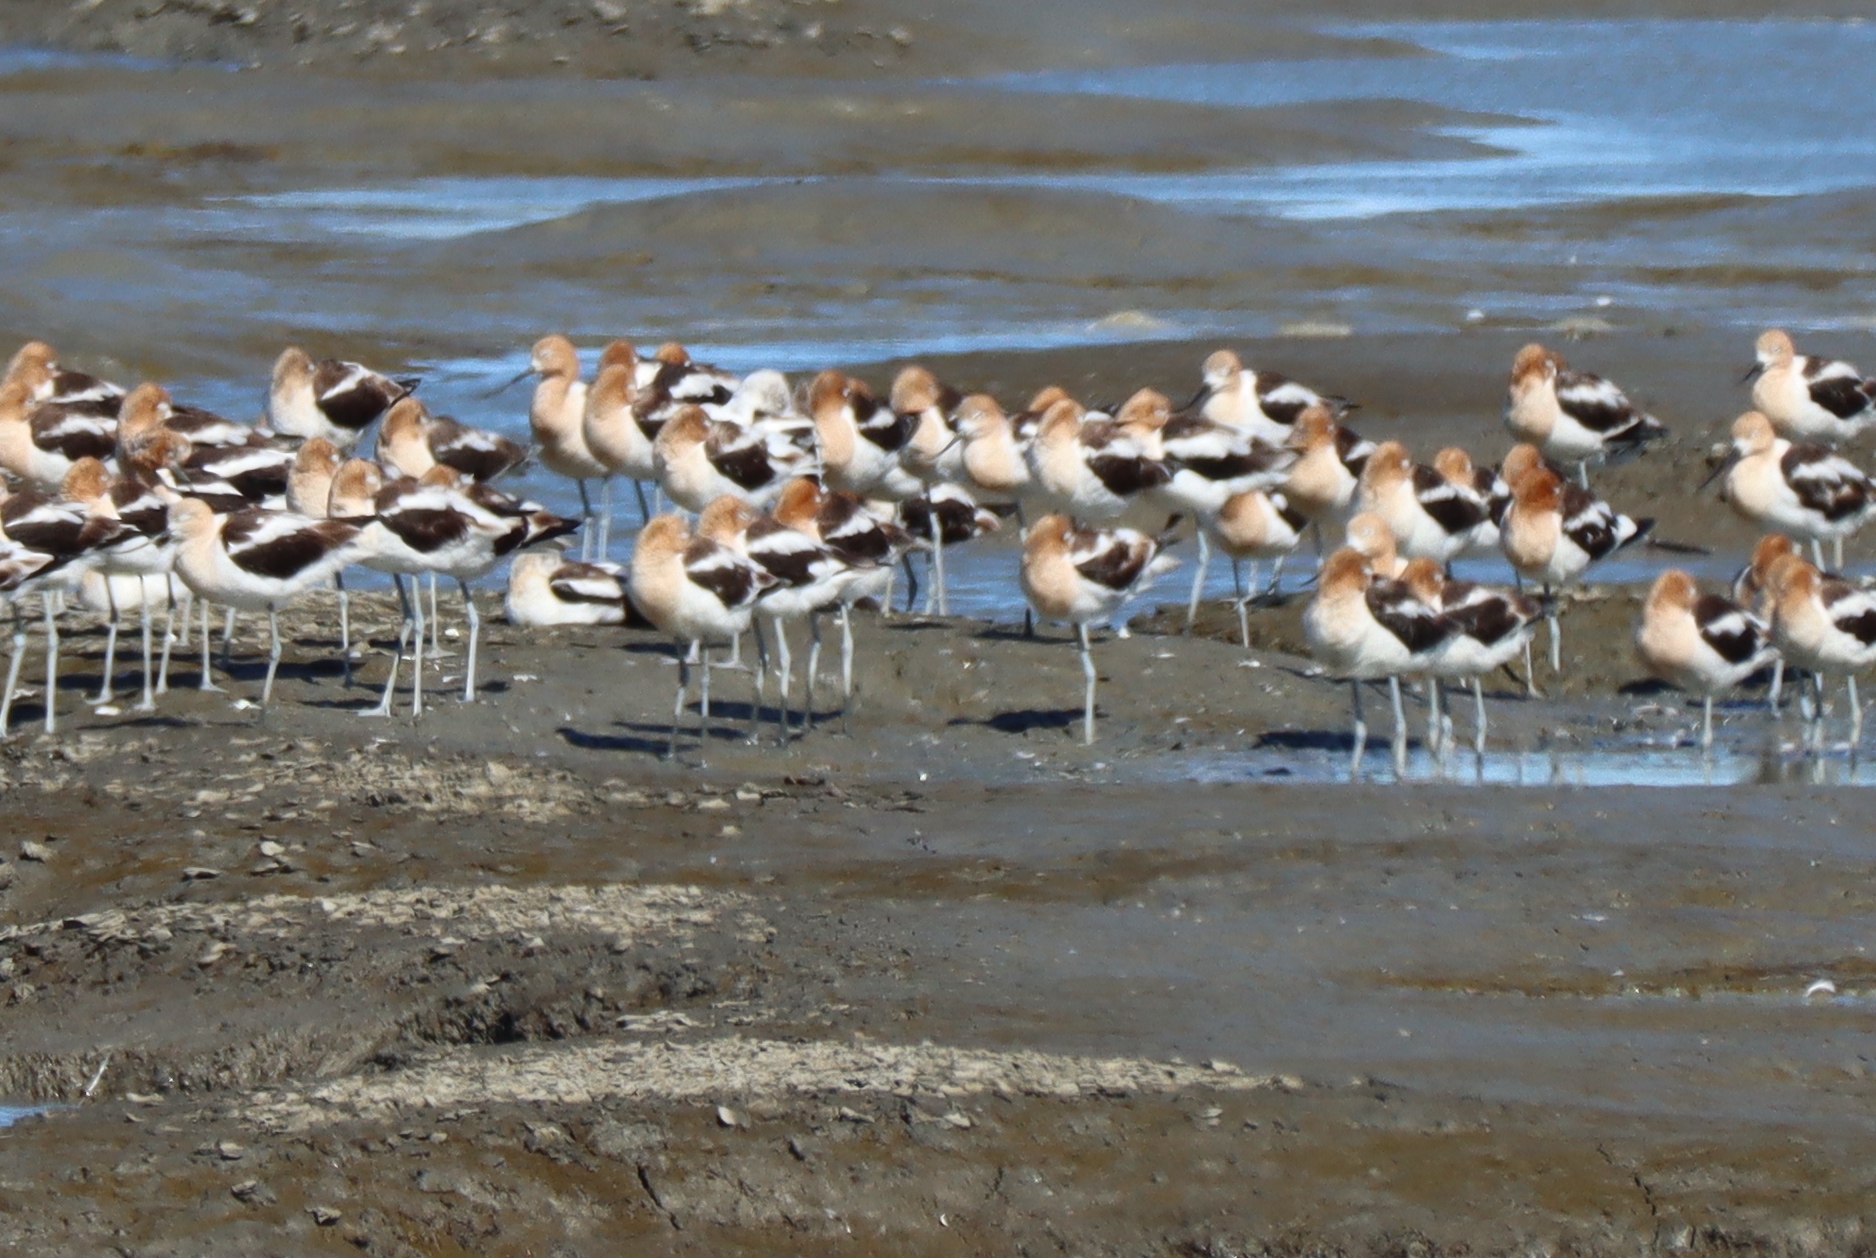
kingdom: Animalia
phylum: Chordata
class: Aves
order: Charadriiformes
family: Recurvirostridae
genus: Recurvirostra
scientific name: Recurvirostra americana
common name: American avocet
